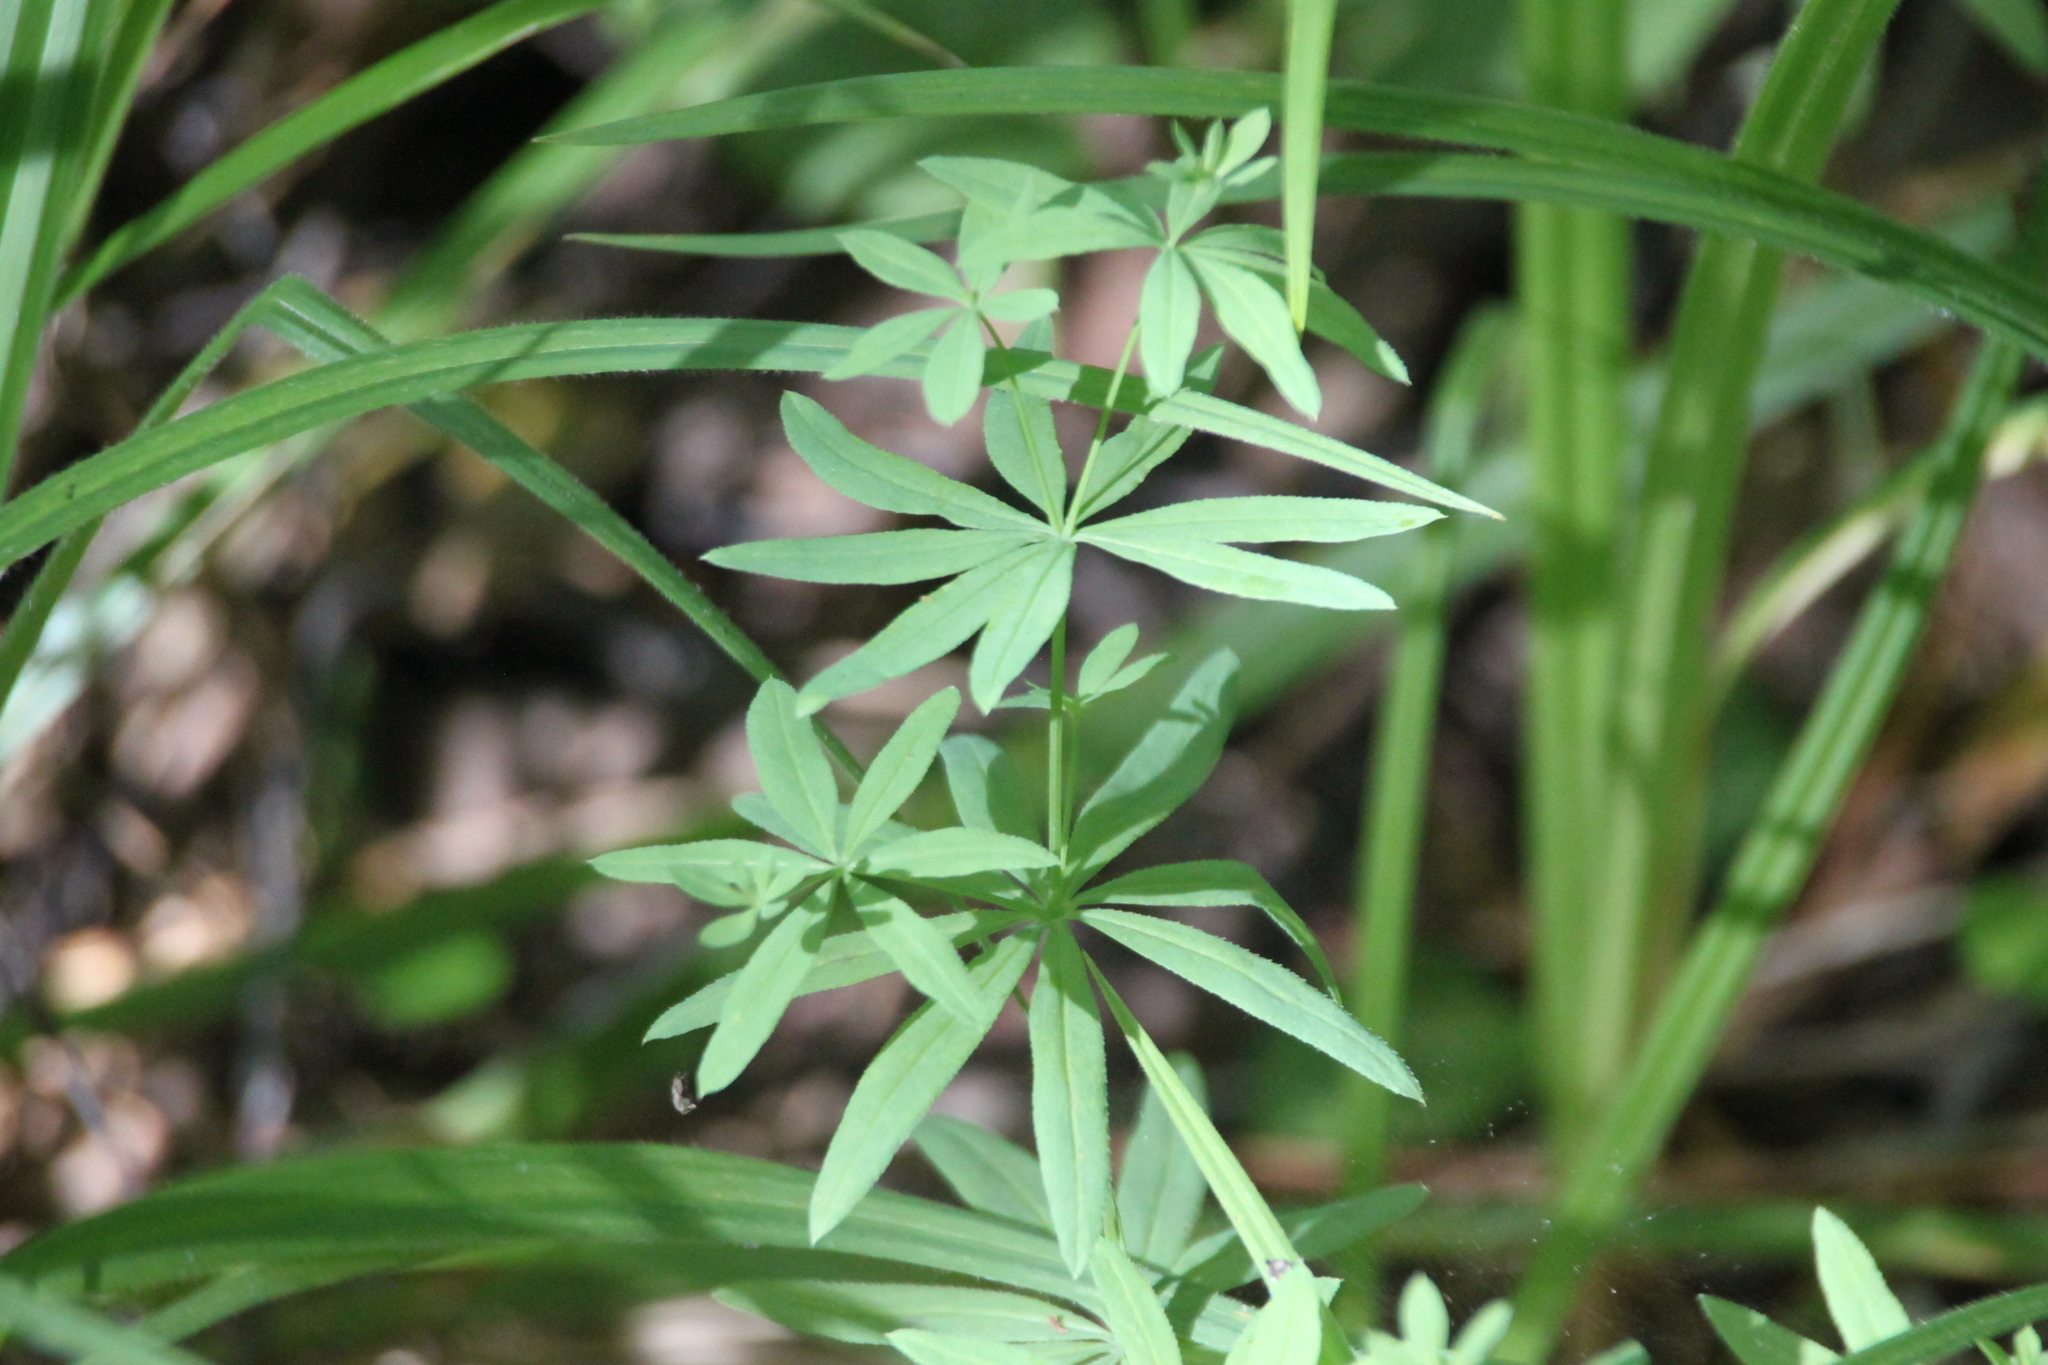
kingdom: Plantae
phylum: Tracheophyta
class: Magnoliopsida
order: Gentianales
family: Rubiaceae
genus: Galium
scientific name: Galium intermedium
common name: Bedstraw
